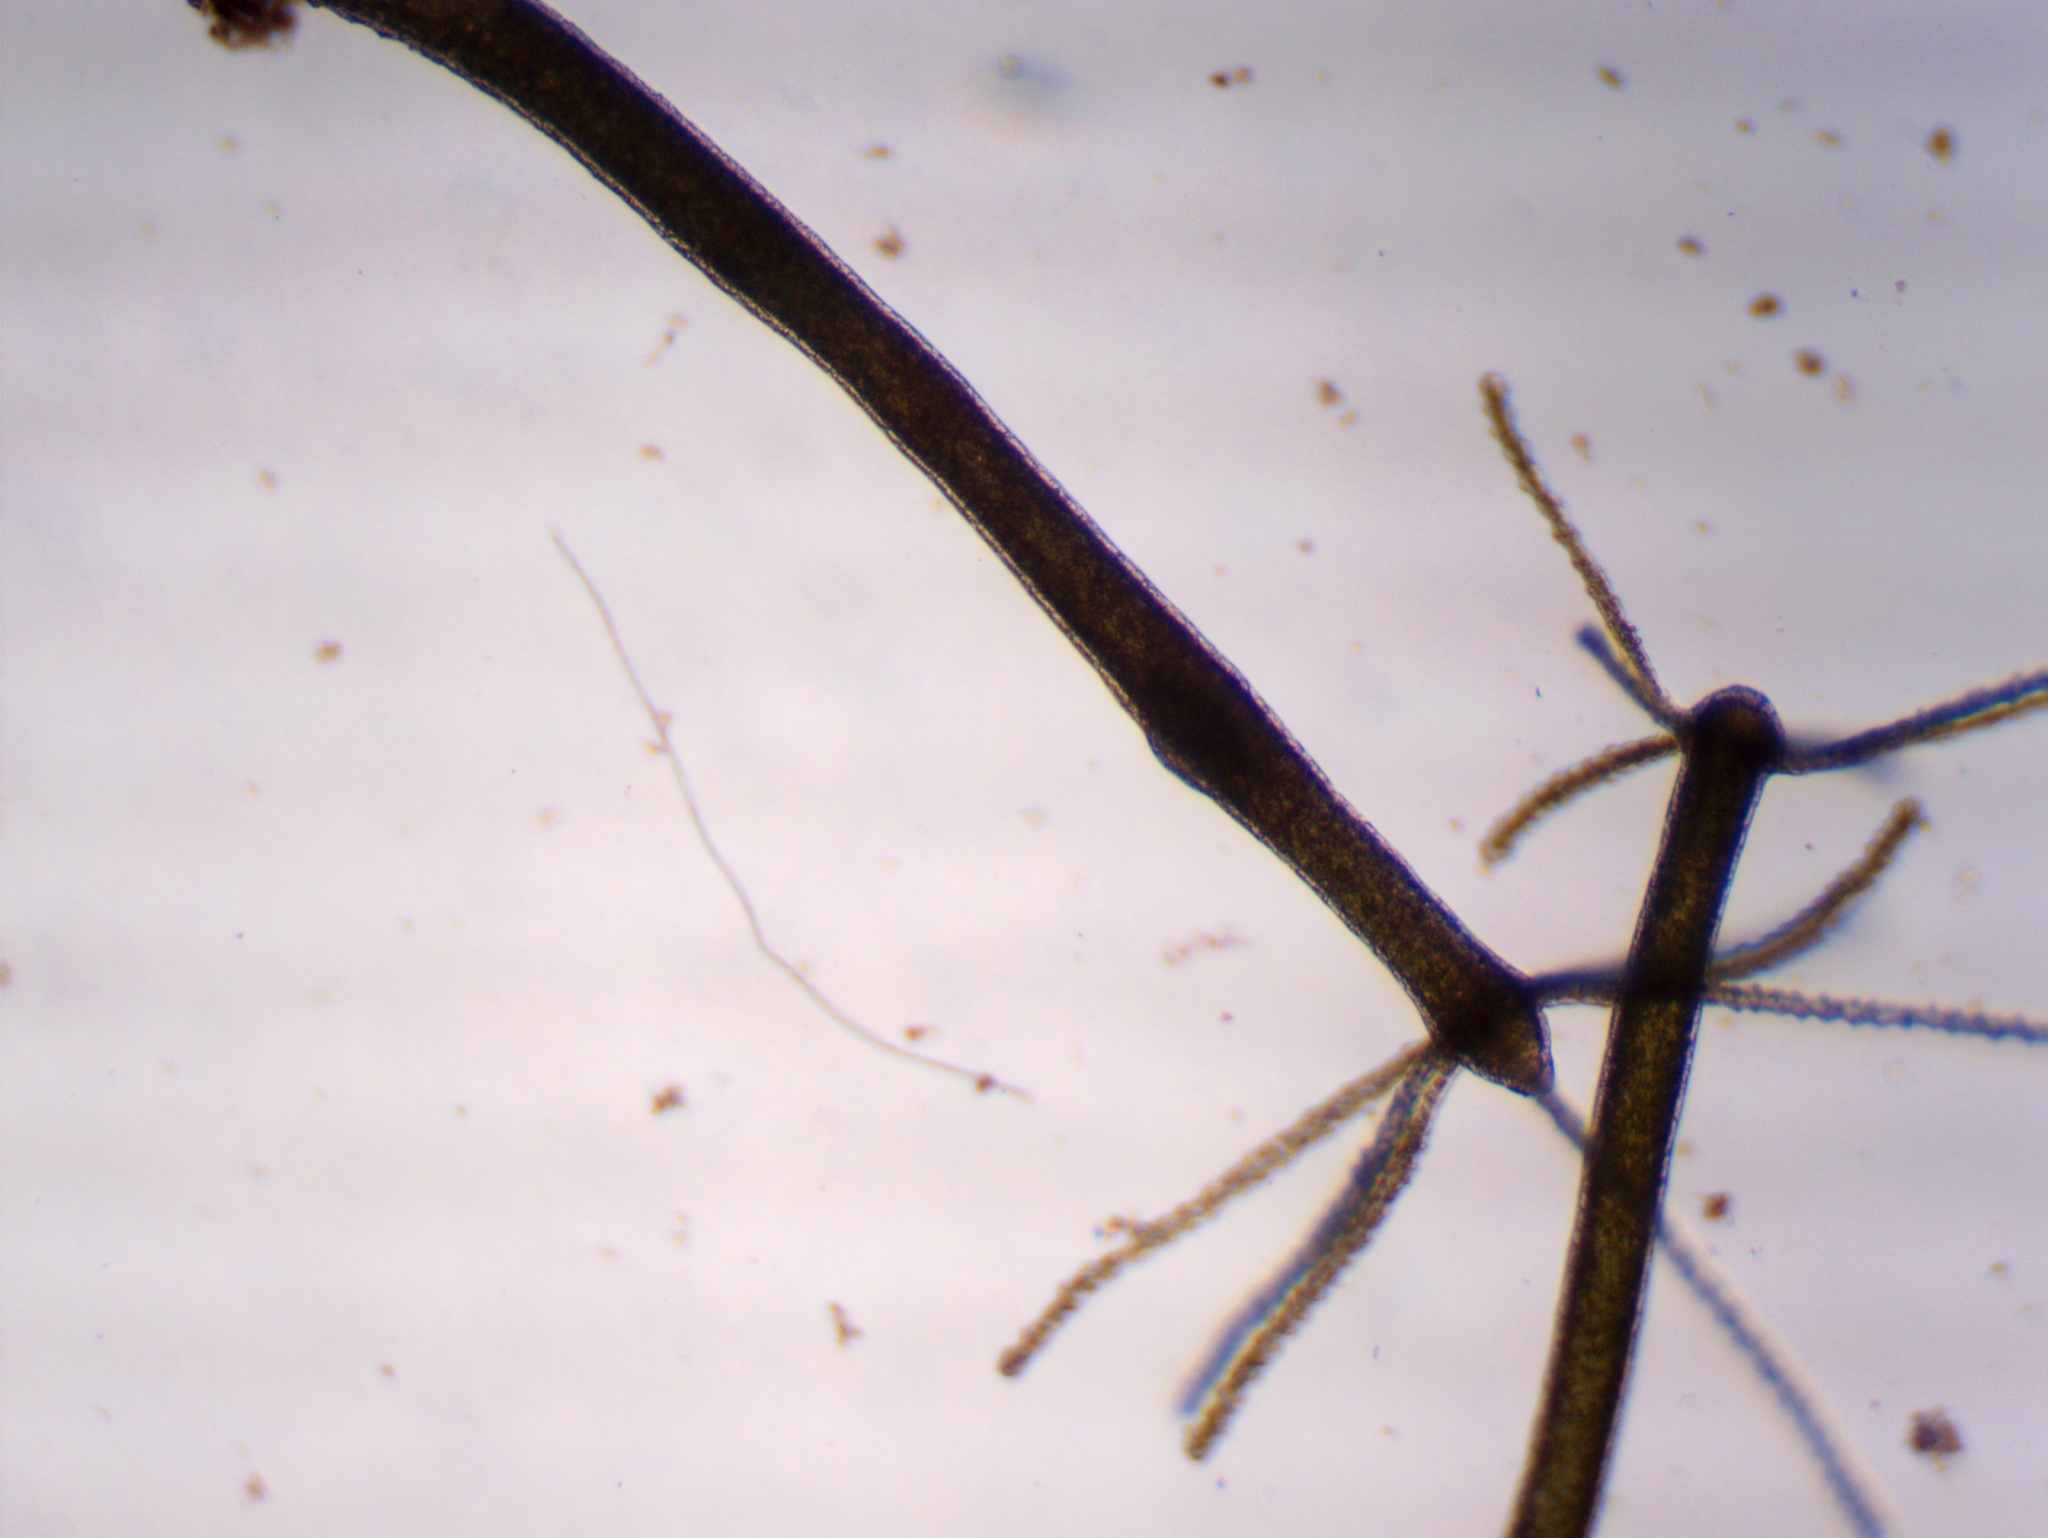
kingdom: Animalia
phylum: Cnidaria
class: Hydrozoa
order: Anthoathecata
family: Hydridae
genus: Hydra
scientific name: Hydra viridissima
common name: Green hydra
